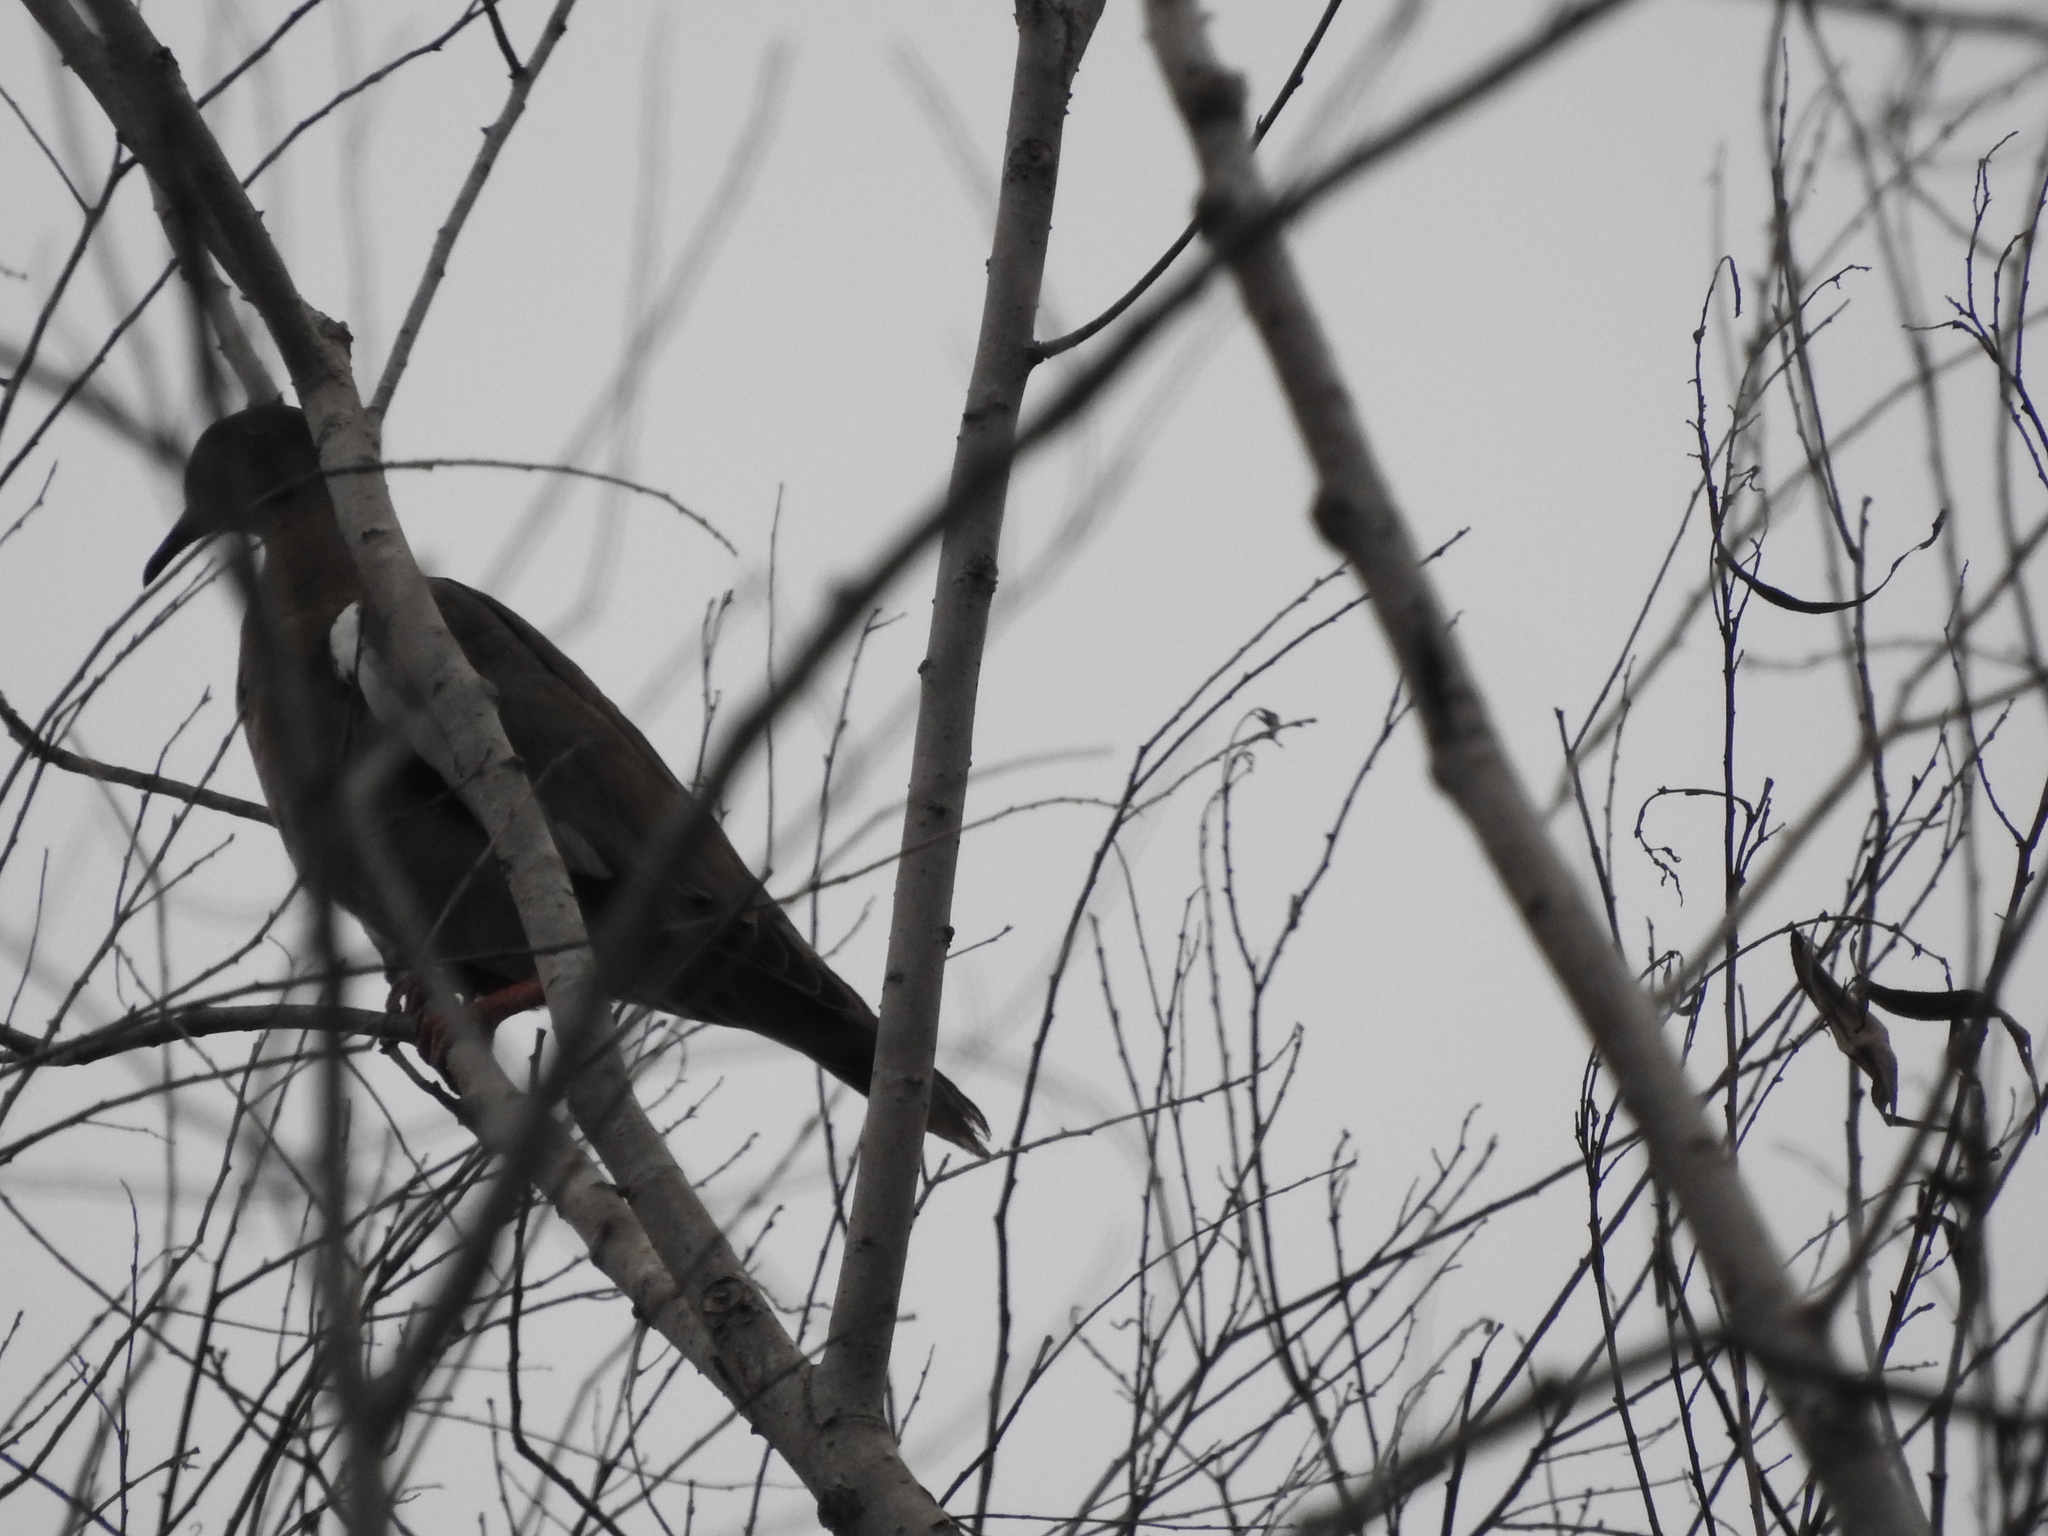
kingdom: Animalia
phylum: Chordata
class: Aves
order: Columbiformes
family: Columbidae
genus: Zenaida
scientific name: Zenaida asiatica
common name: White-winged dove
